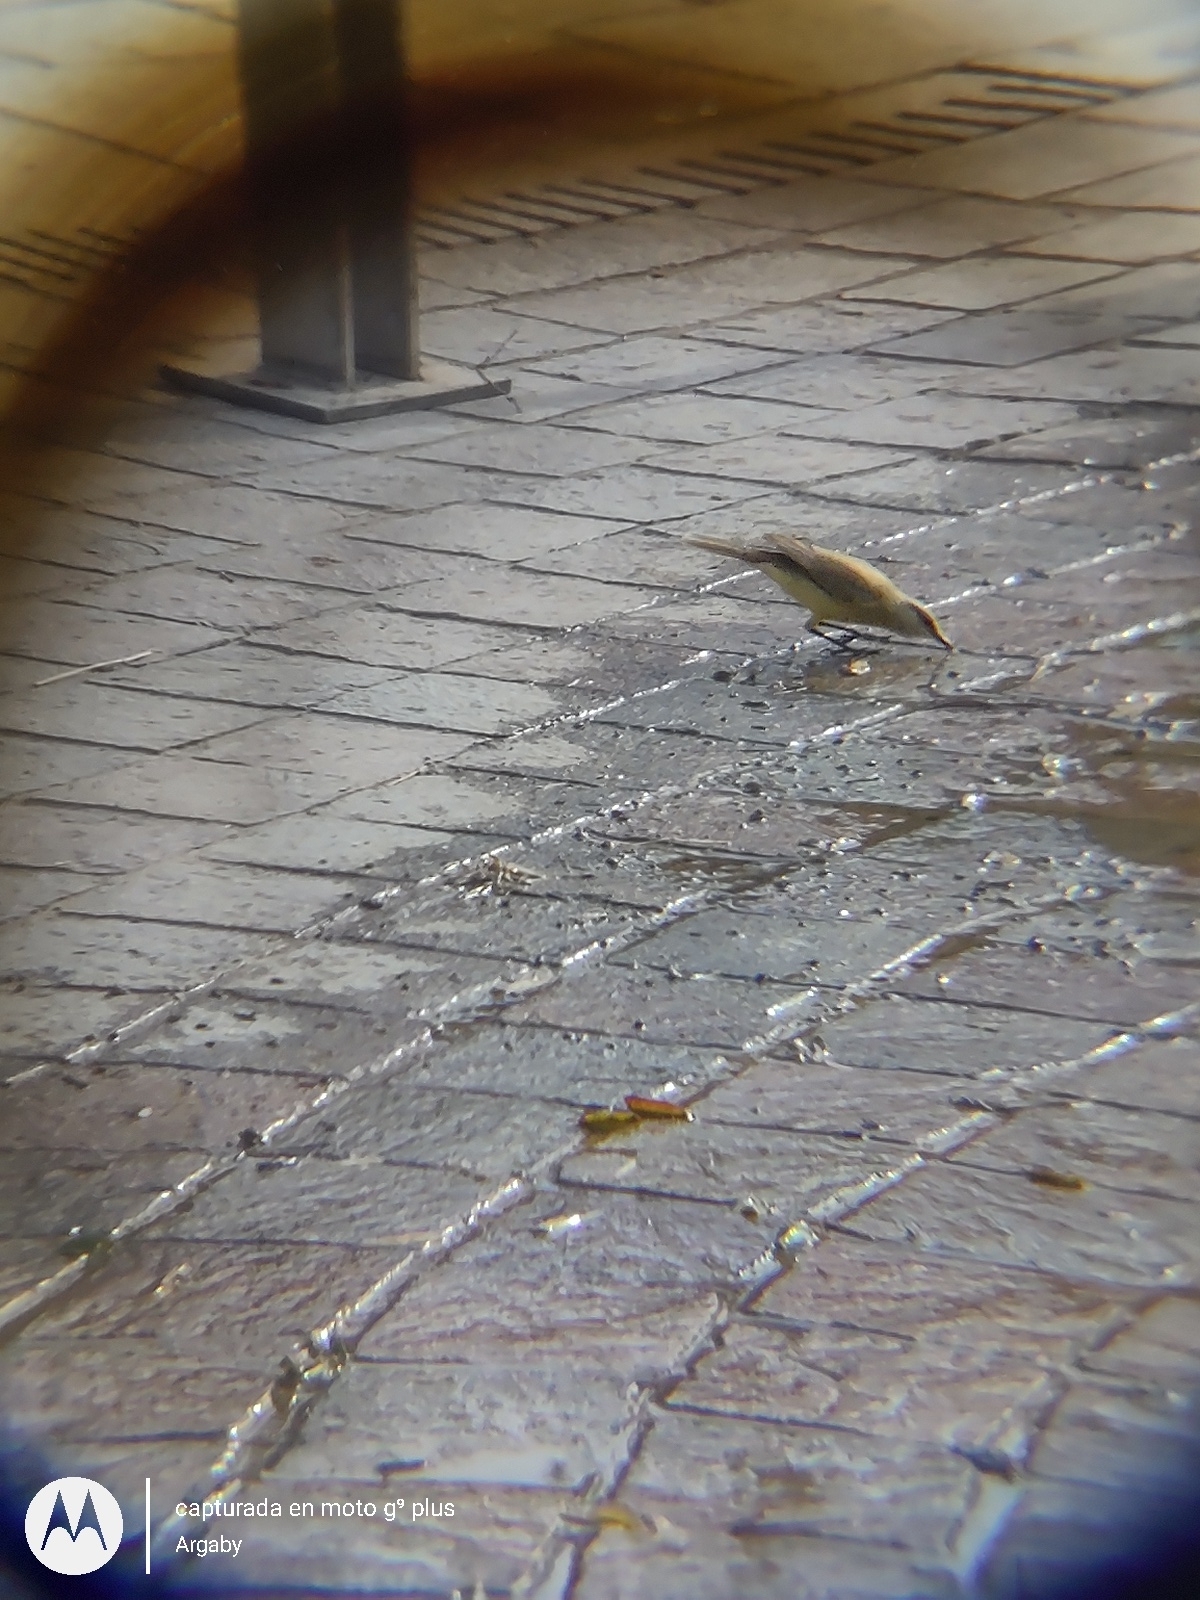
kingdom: Animalia
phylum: Chordata
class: Aves
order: Passeriformes
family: Tyrannidae
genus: Machetornis
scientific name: Machetornis rixosa
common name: Cattle tyrant
